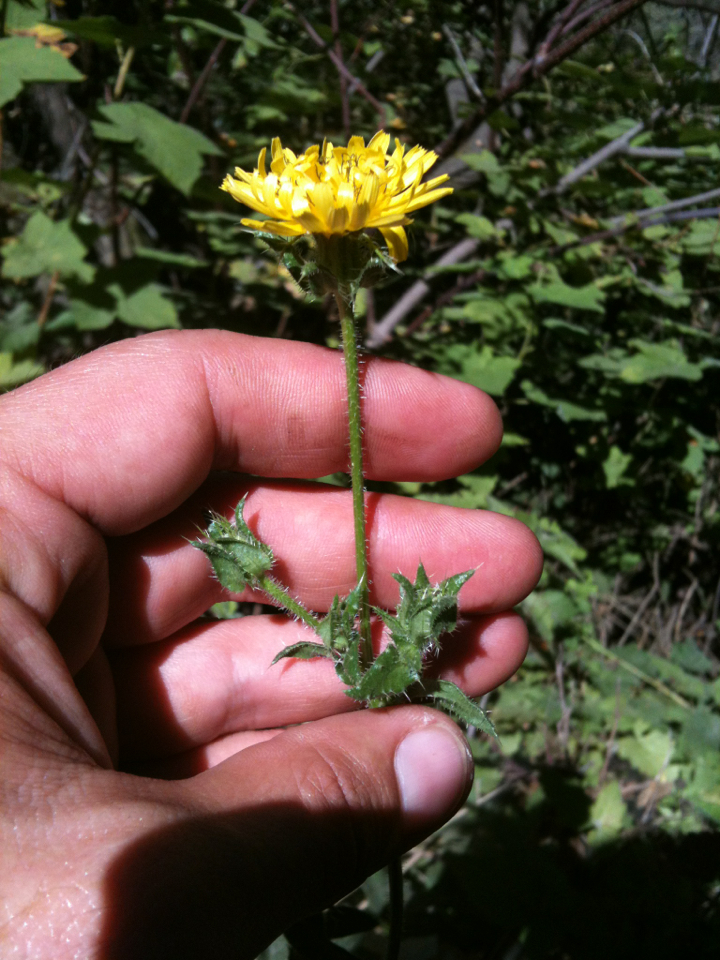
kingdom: Plantae
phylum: Tracheophyta
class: Magnoliopsida
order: Asterales
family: Asteraceae
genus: Helminthotheca
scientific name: Helminthotheca echioides
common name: Ox-tongue
